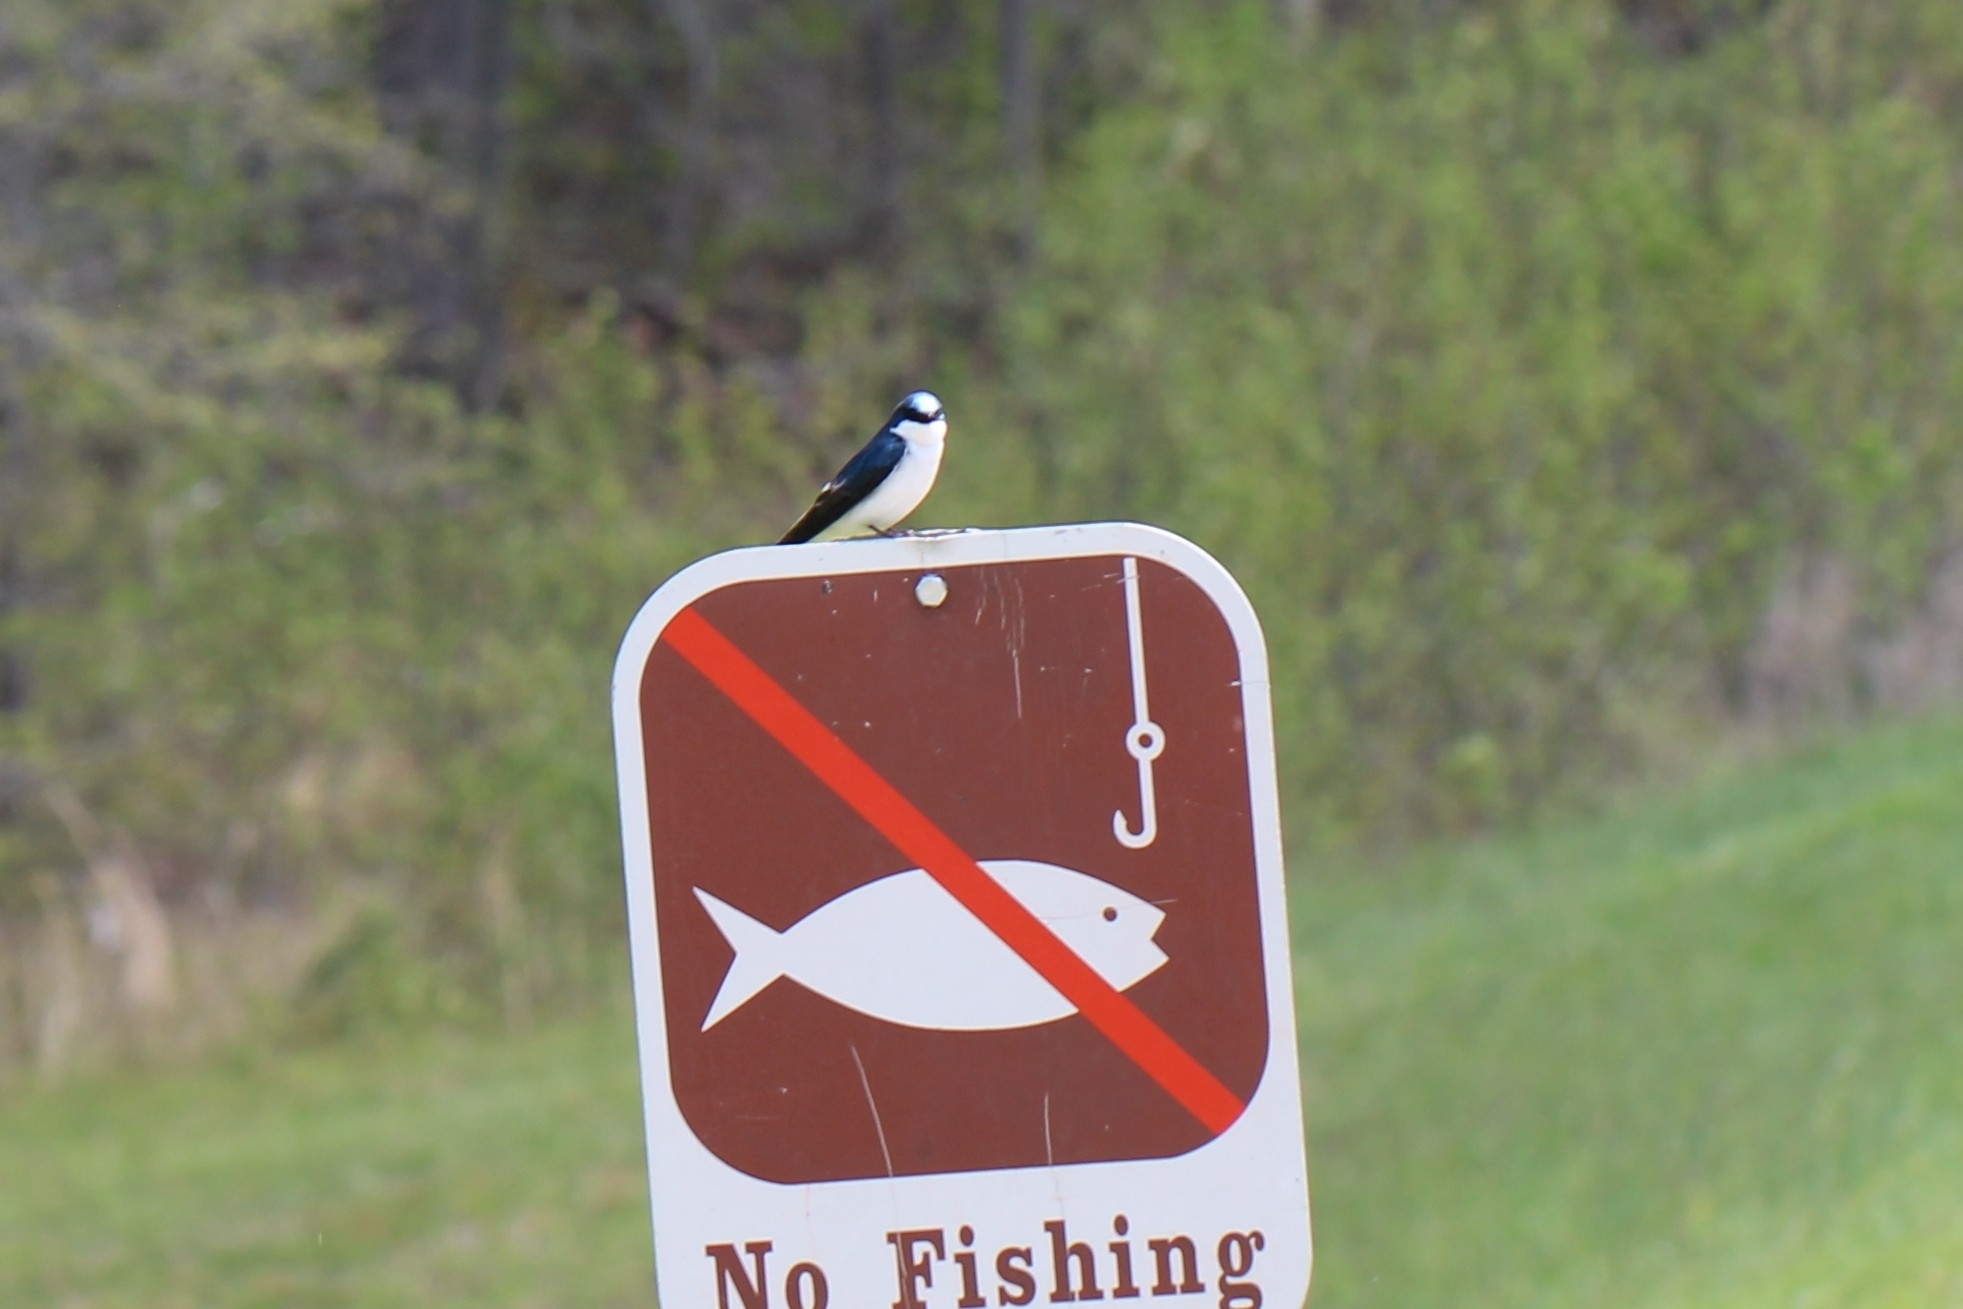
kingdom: Animalia
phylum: Chordata
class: Aves
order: Passeriformes
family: Hirundinidae
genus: Tachycineta
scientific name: Tachycineta bicolor
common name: Tree swallow
